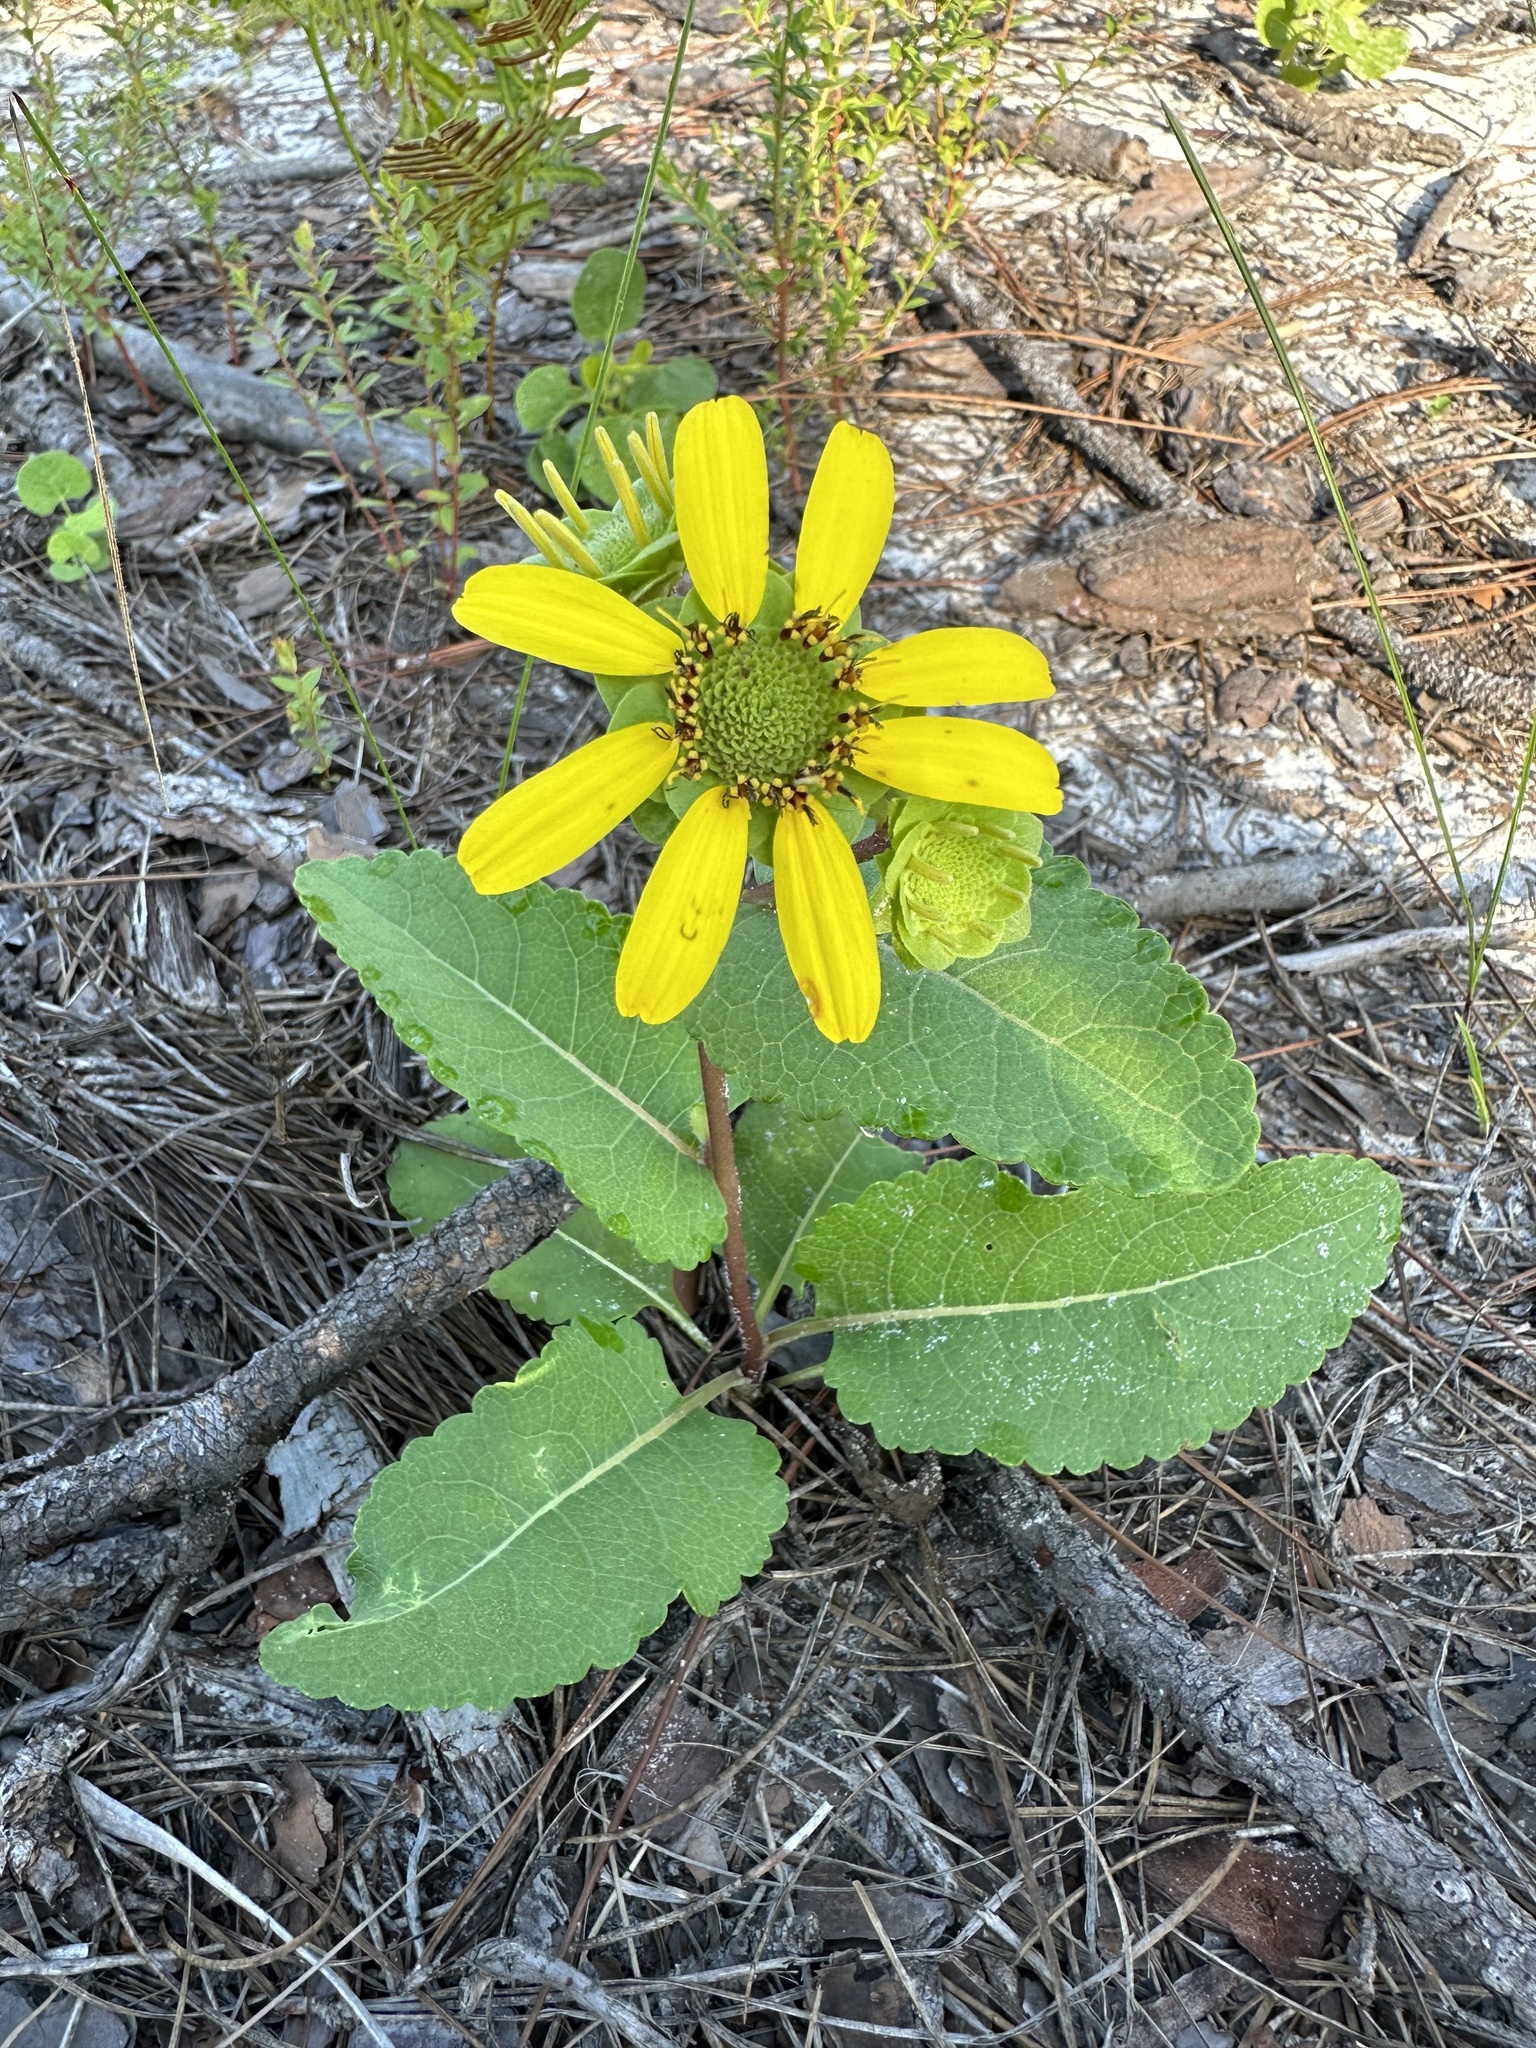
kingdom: Plantae
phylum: Tracheophyta
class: Magnoliopsida
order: Asterales
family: Asteraceae
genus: Berlandiera
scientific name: Berlandiera pumila
